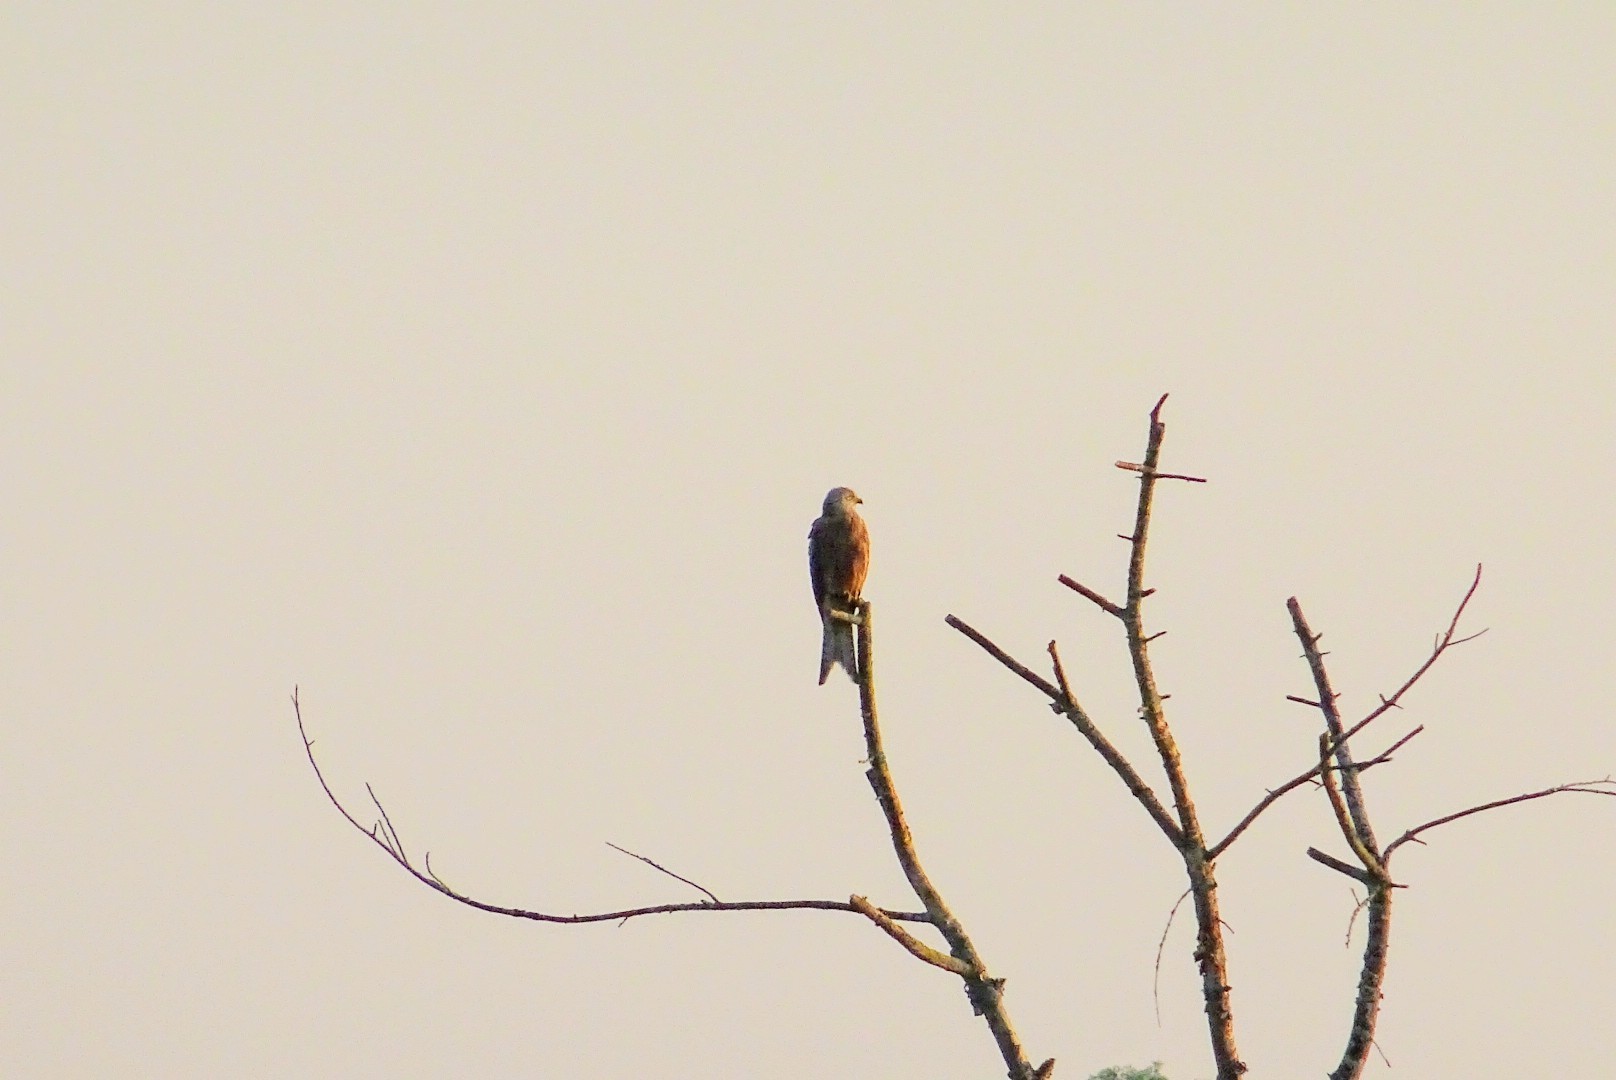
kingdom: Animalia
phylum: Chordata
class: Aves
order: Accipitriformes
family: Accipitridae
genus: Milvus
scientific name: Milvus milvus
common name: Red kite
